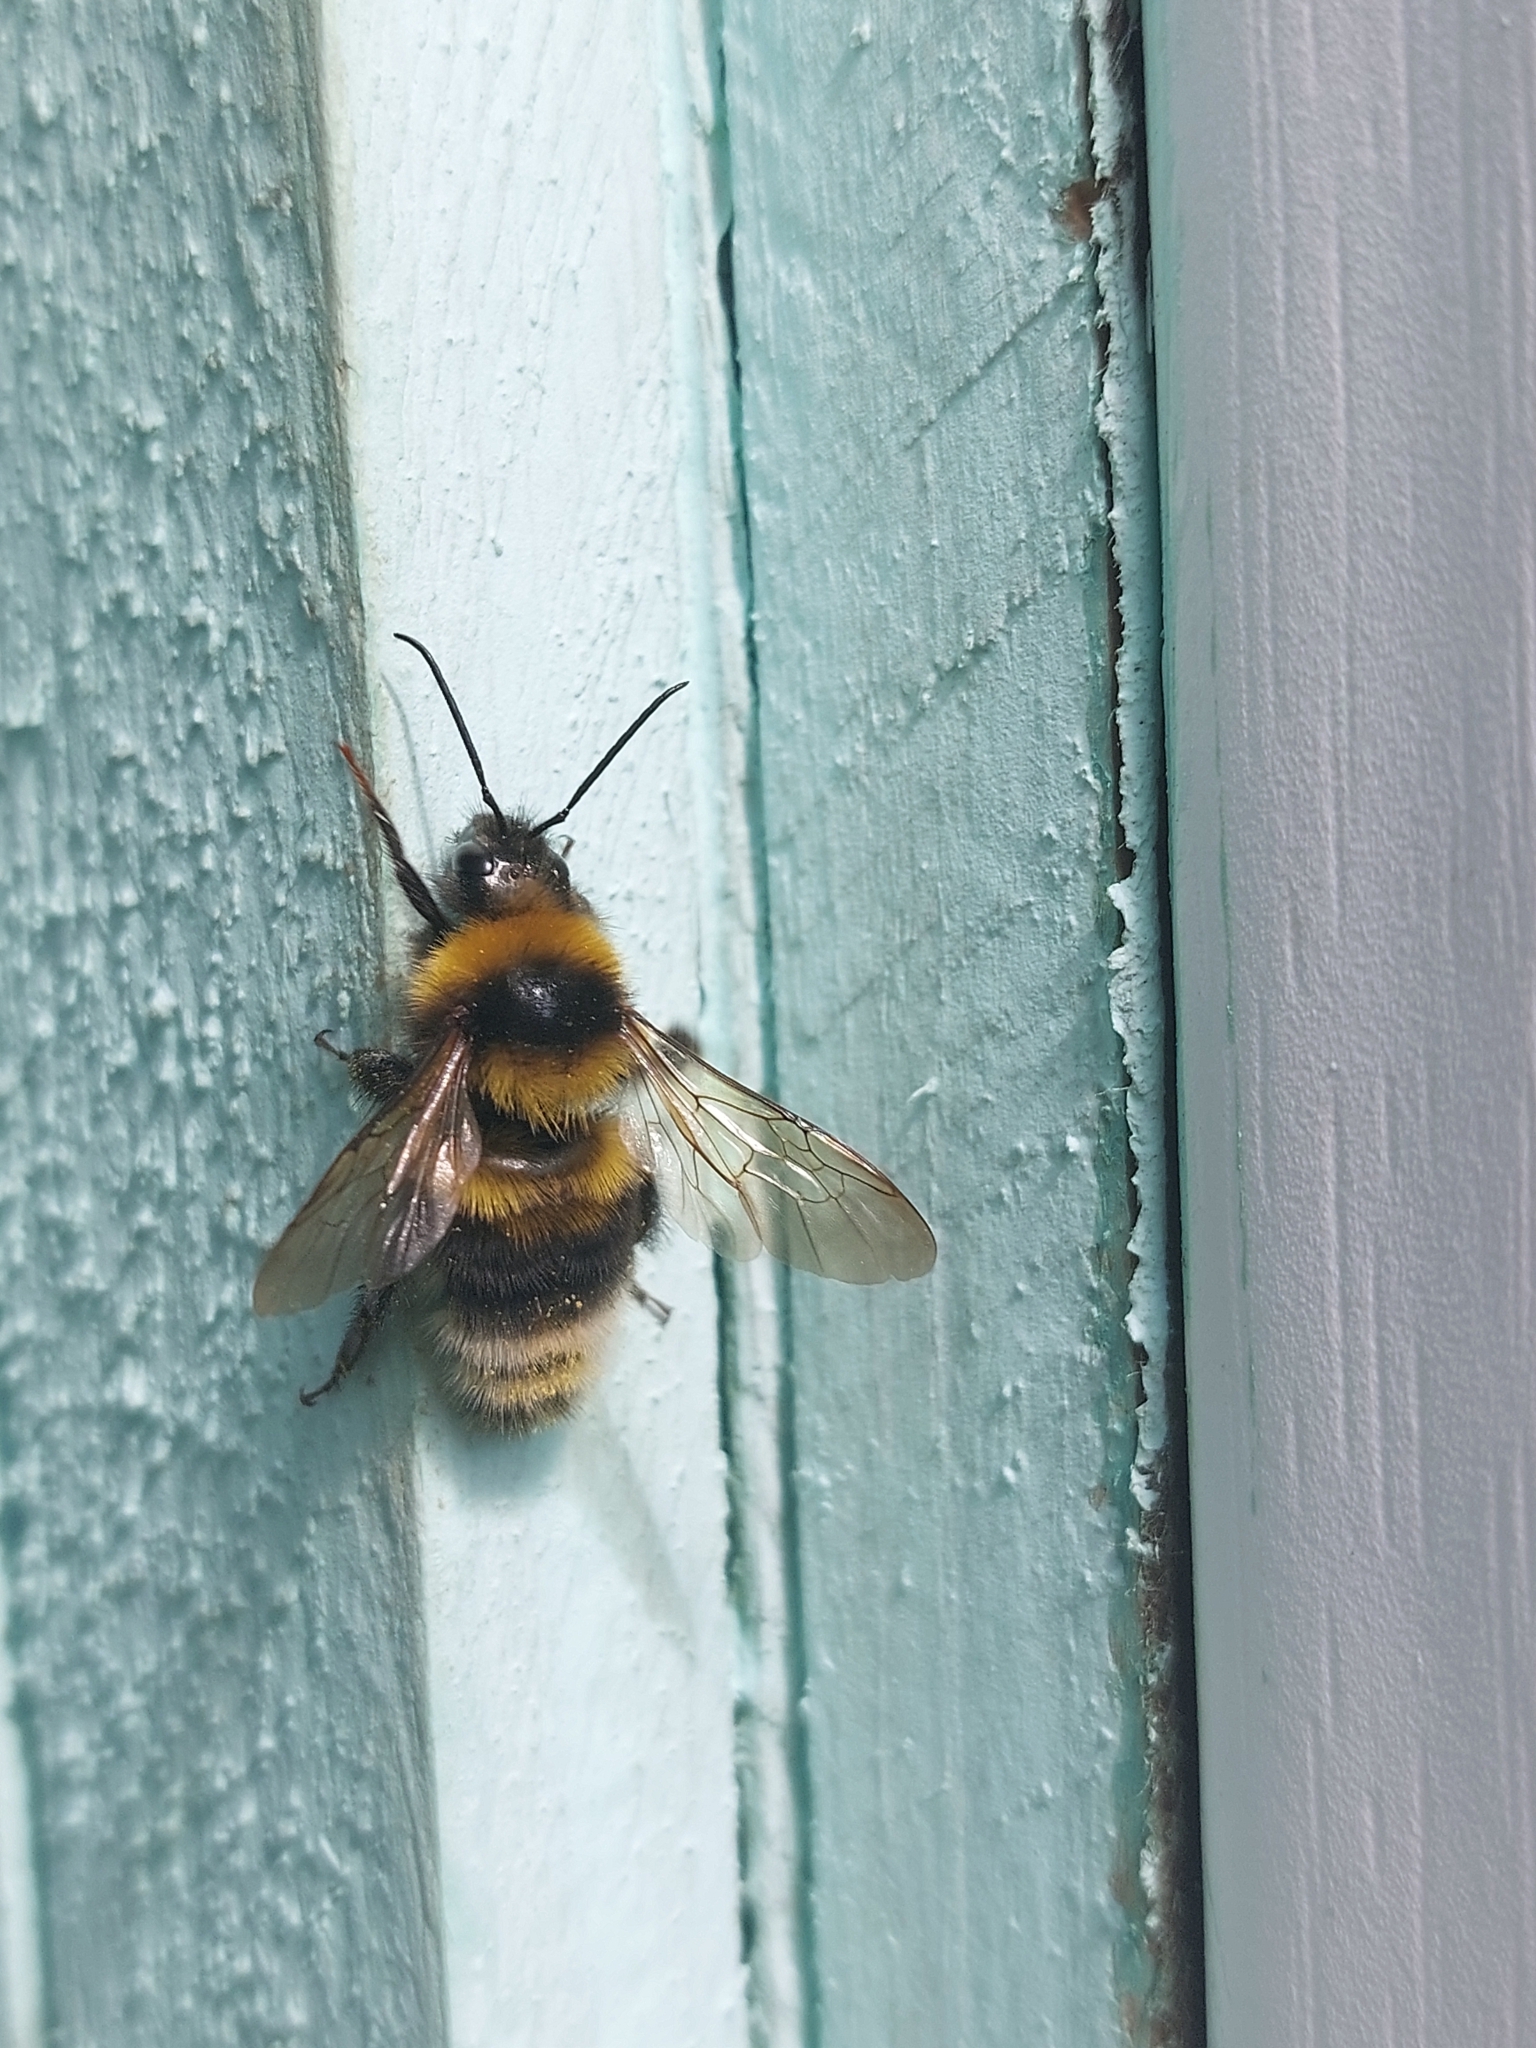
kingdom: Animalia
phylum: Arthropoda
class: Insecta
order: Hymenoptera
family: Apidae
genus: Bombus
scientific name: Bombus hortorum
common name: Garden bumblebee
